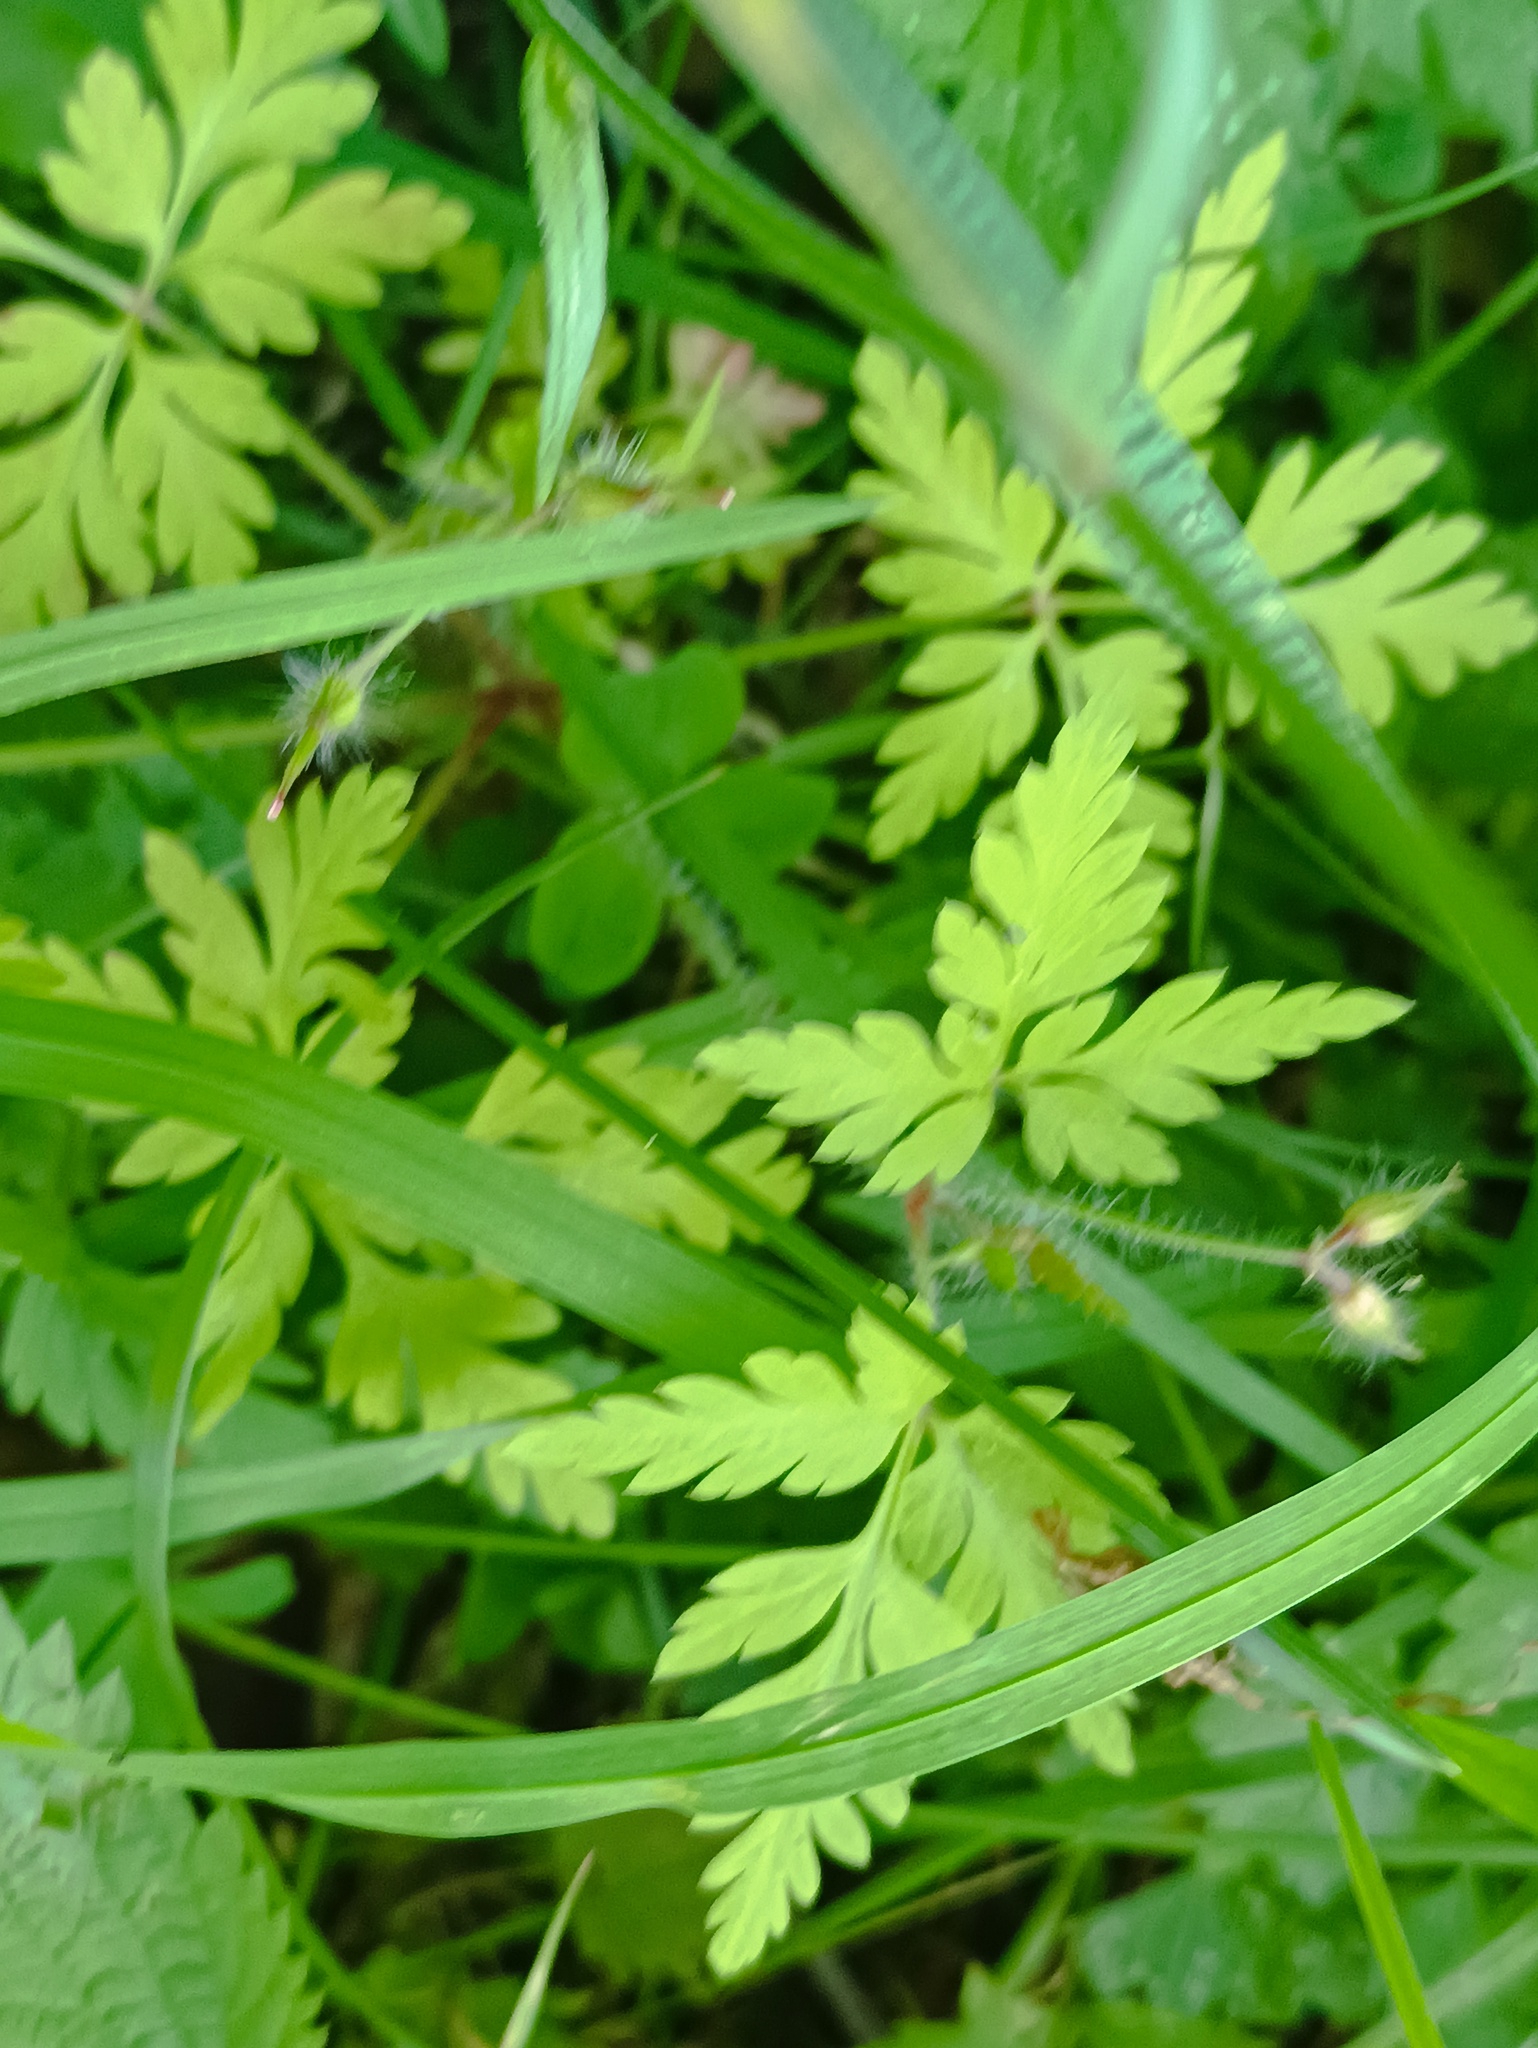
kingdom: Plantae
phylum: Tracheophyta
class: Magnoliopsida
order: Geraniales
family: Geraniaceae
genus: Geranium
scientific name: Geranium robertianum
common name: Herb-robert
